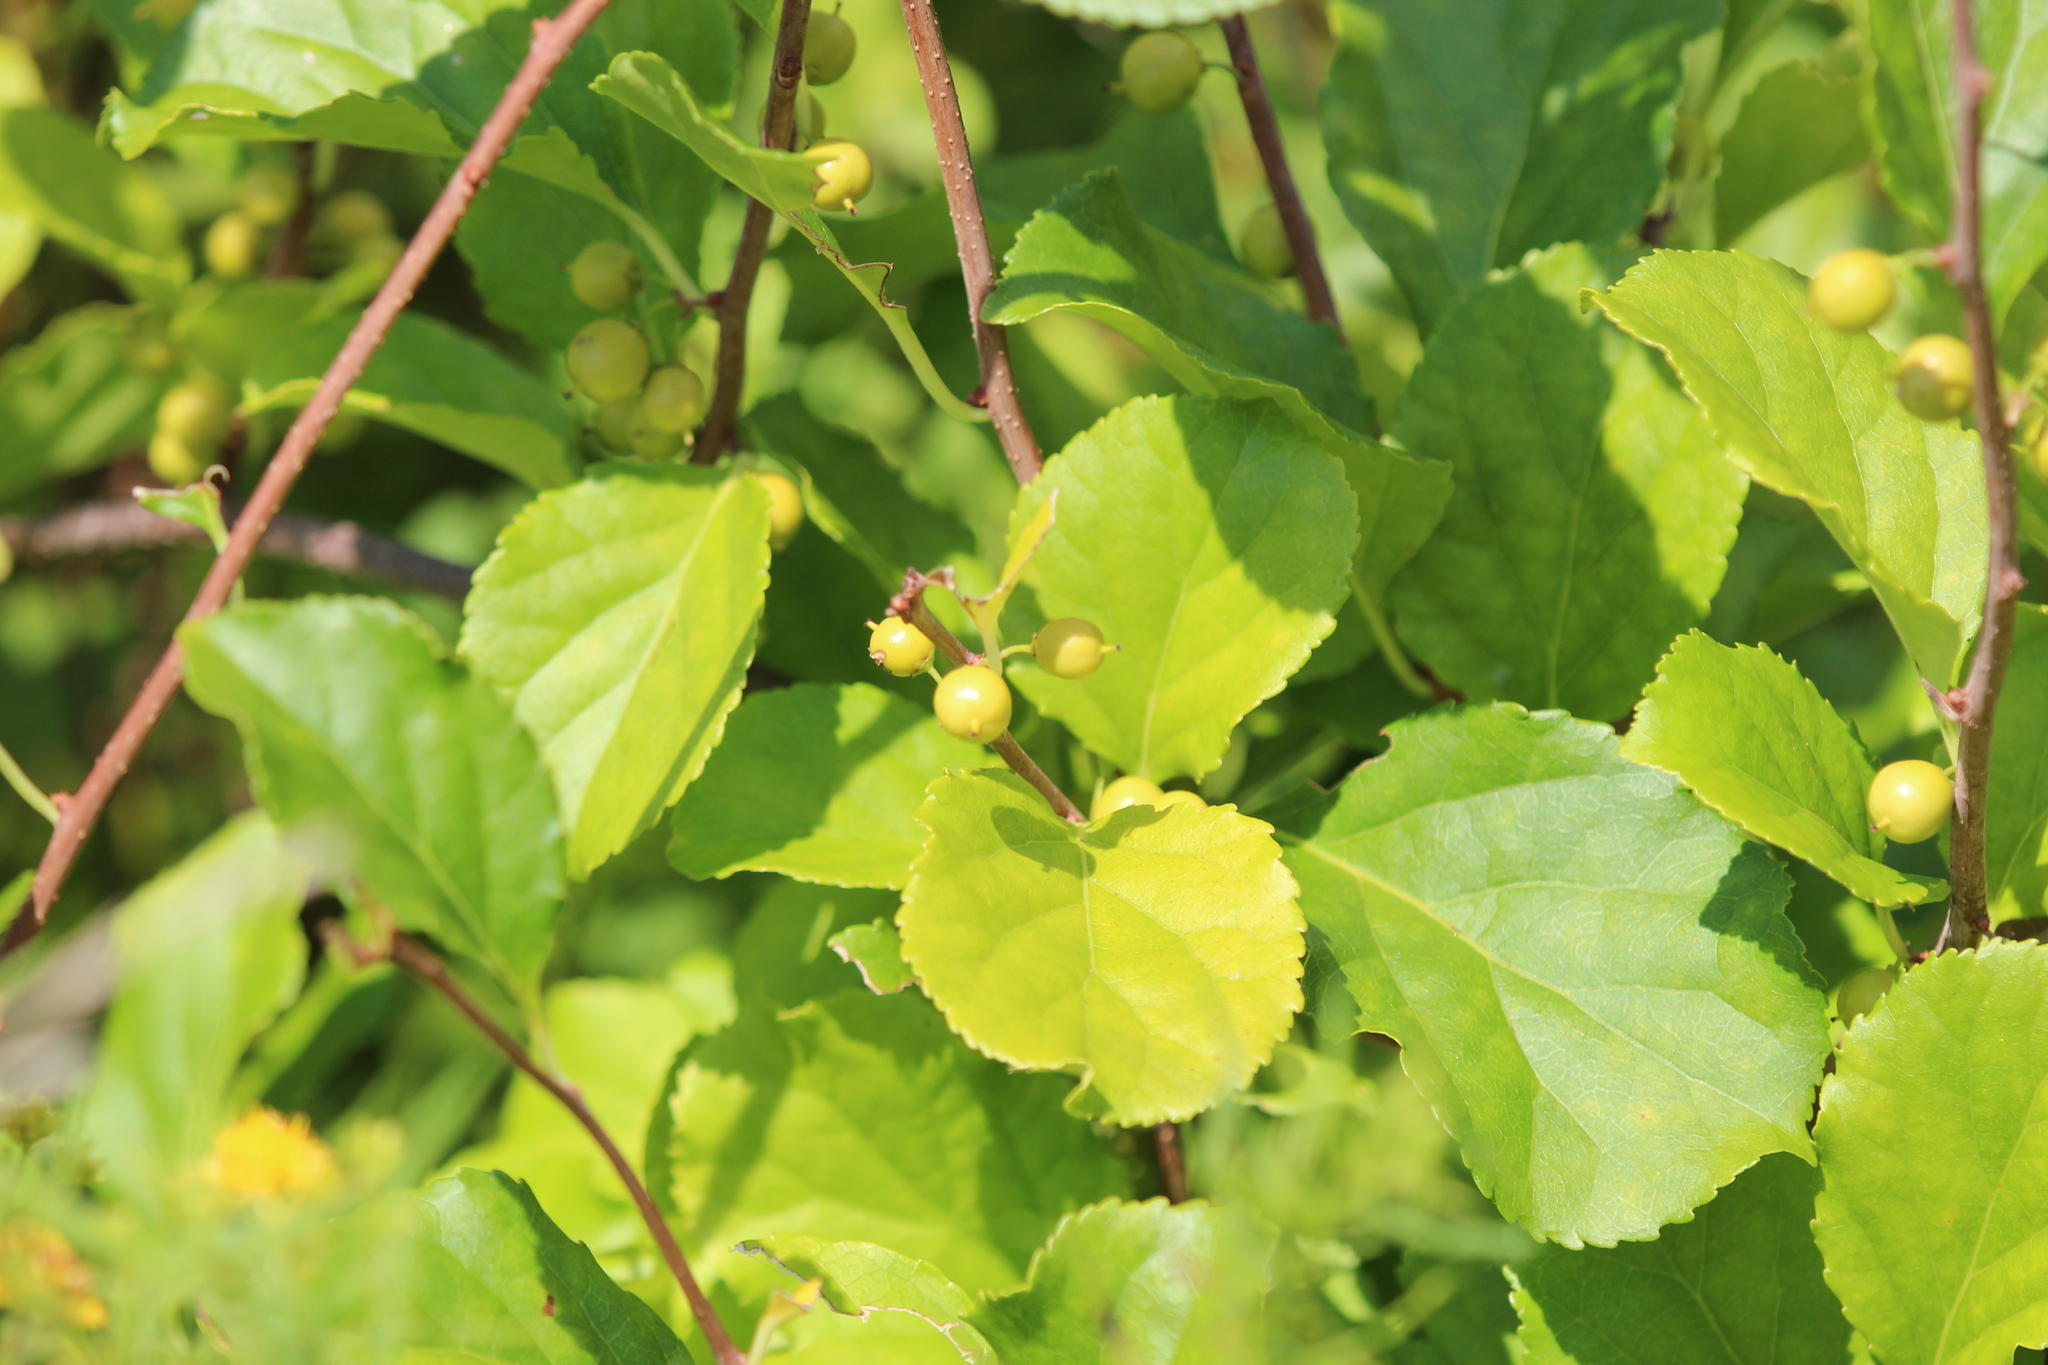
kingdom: Plantae
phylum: Tracheophyta
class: Magnoliopsida
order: Celastrales
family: Celastraceae
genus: Celastrus
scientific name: Celastrus orbiculatus
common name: Oriental bittersweet
